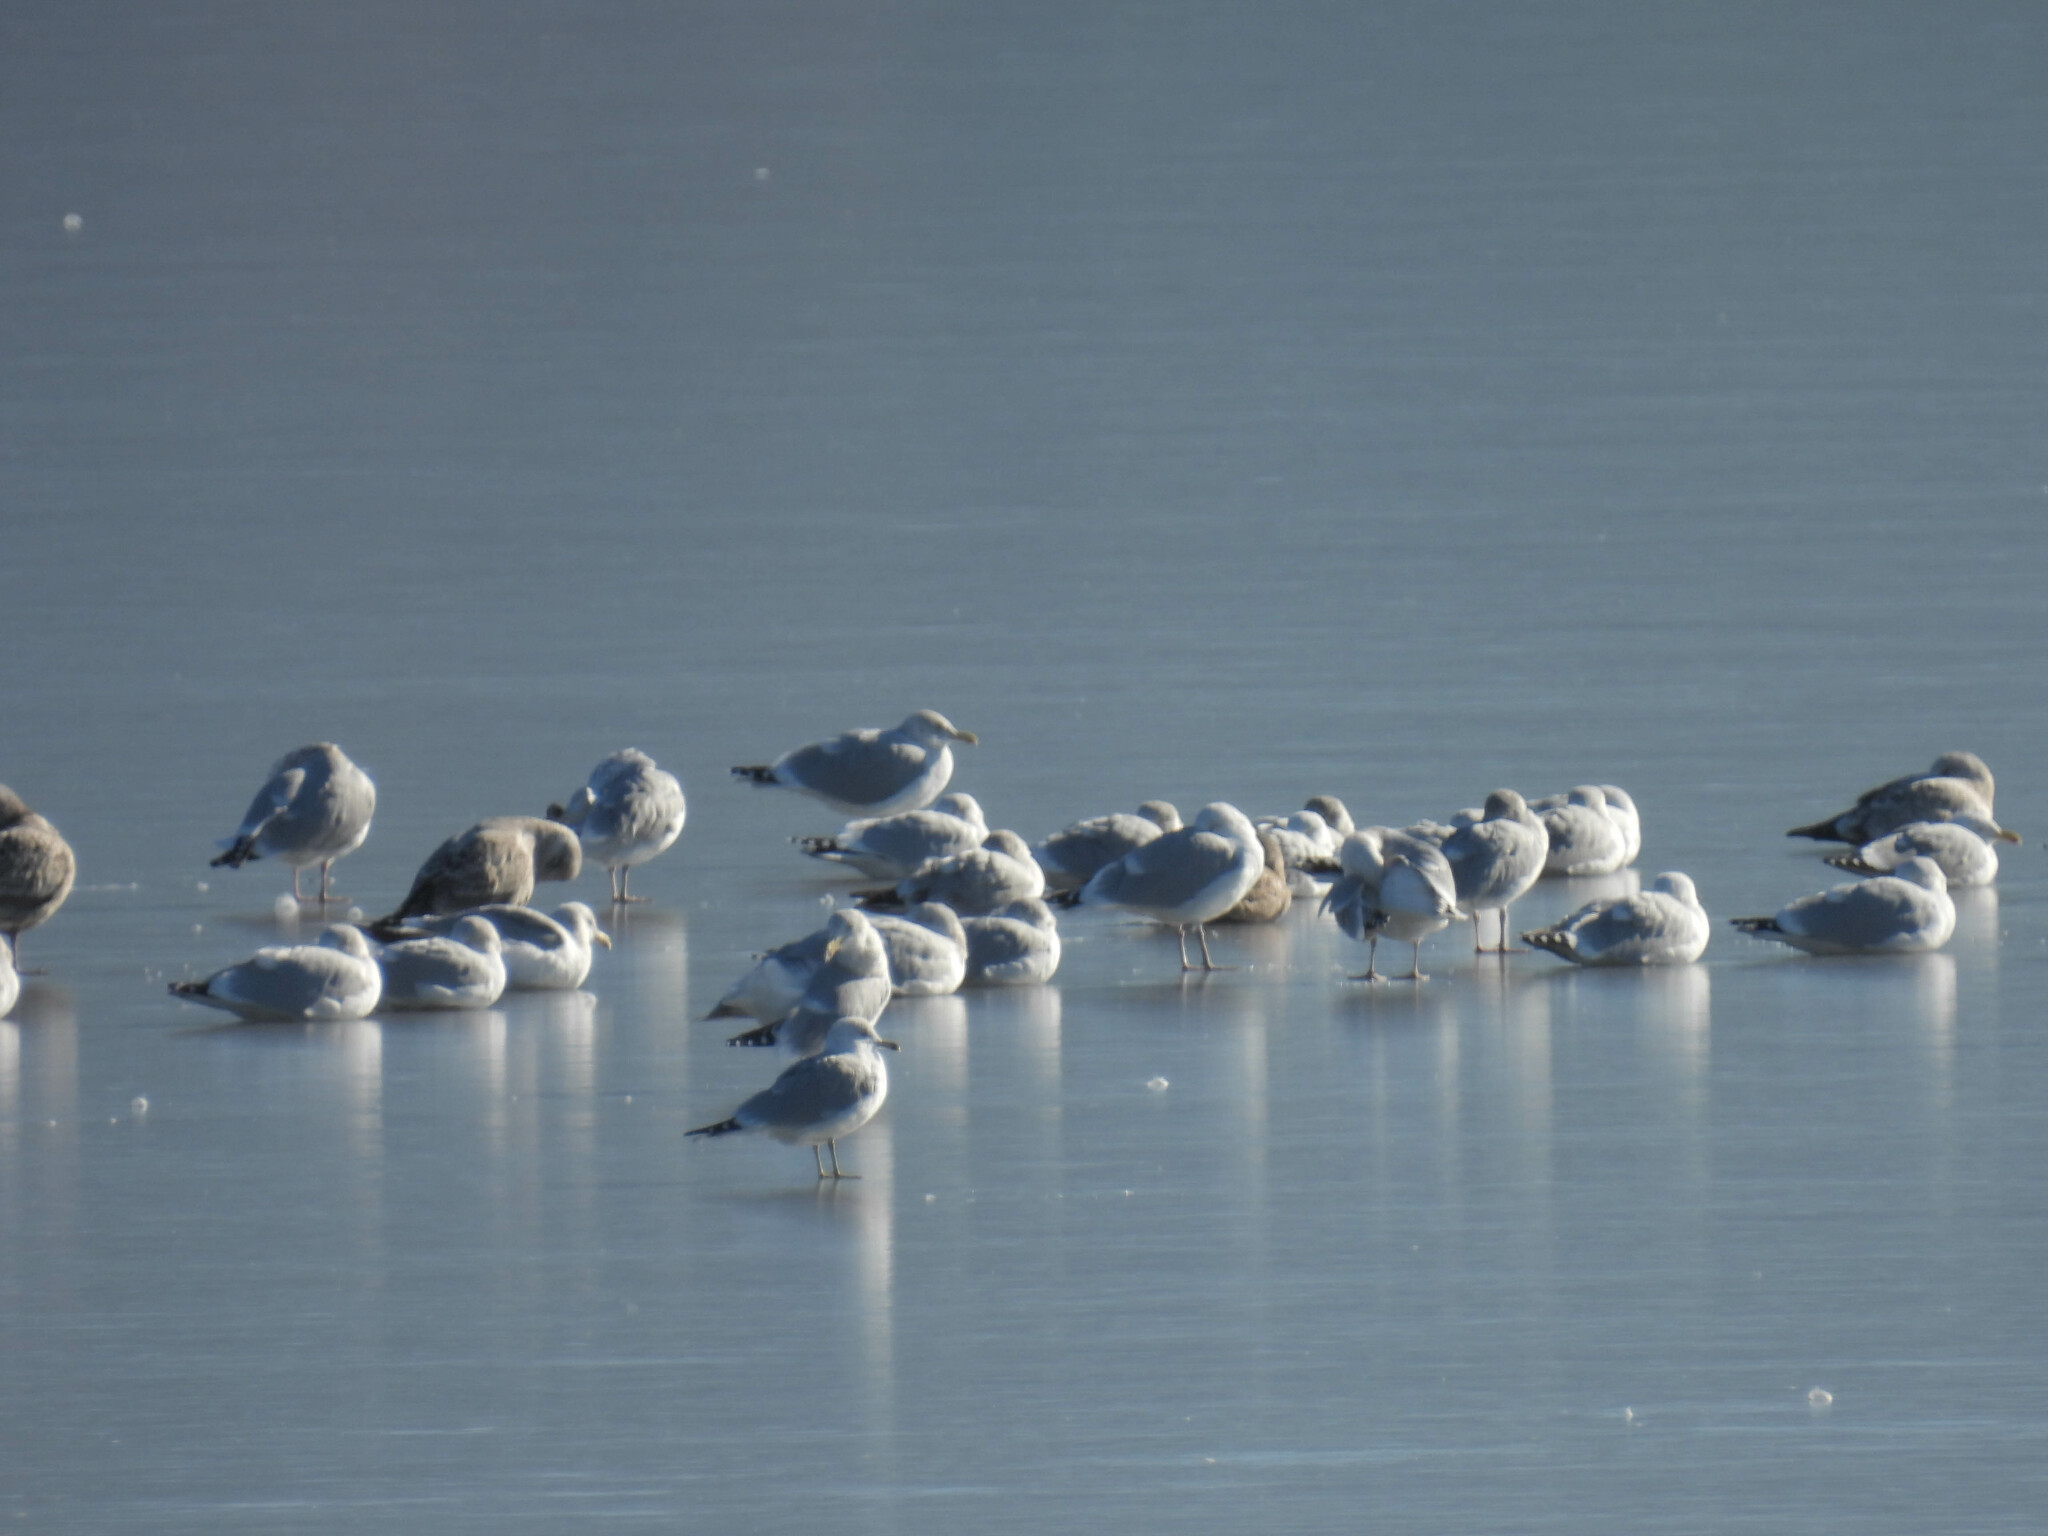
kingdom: Animalia
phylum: Chordata
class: Aves
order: Charadriiformes
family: Laridae
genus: Larus
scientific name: Larus delawarensis
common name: Ring-billed gull
